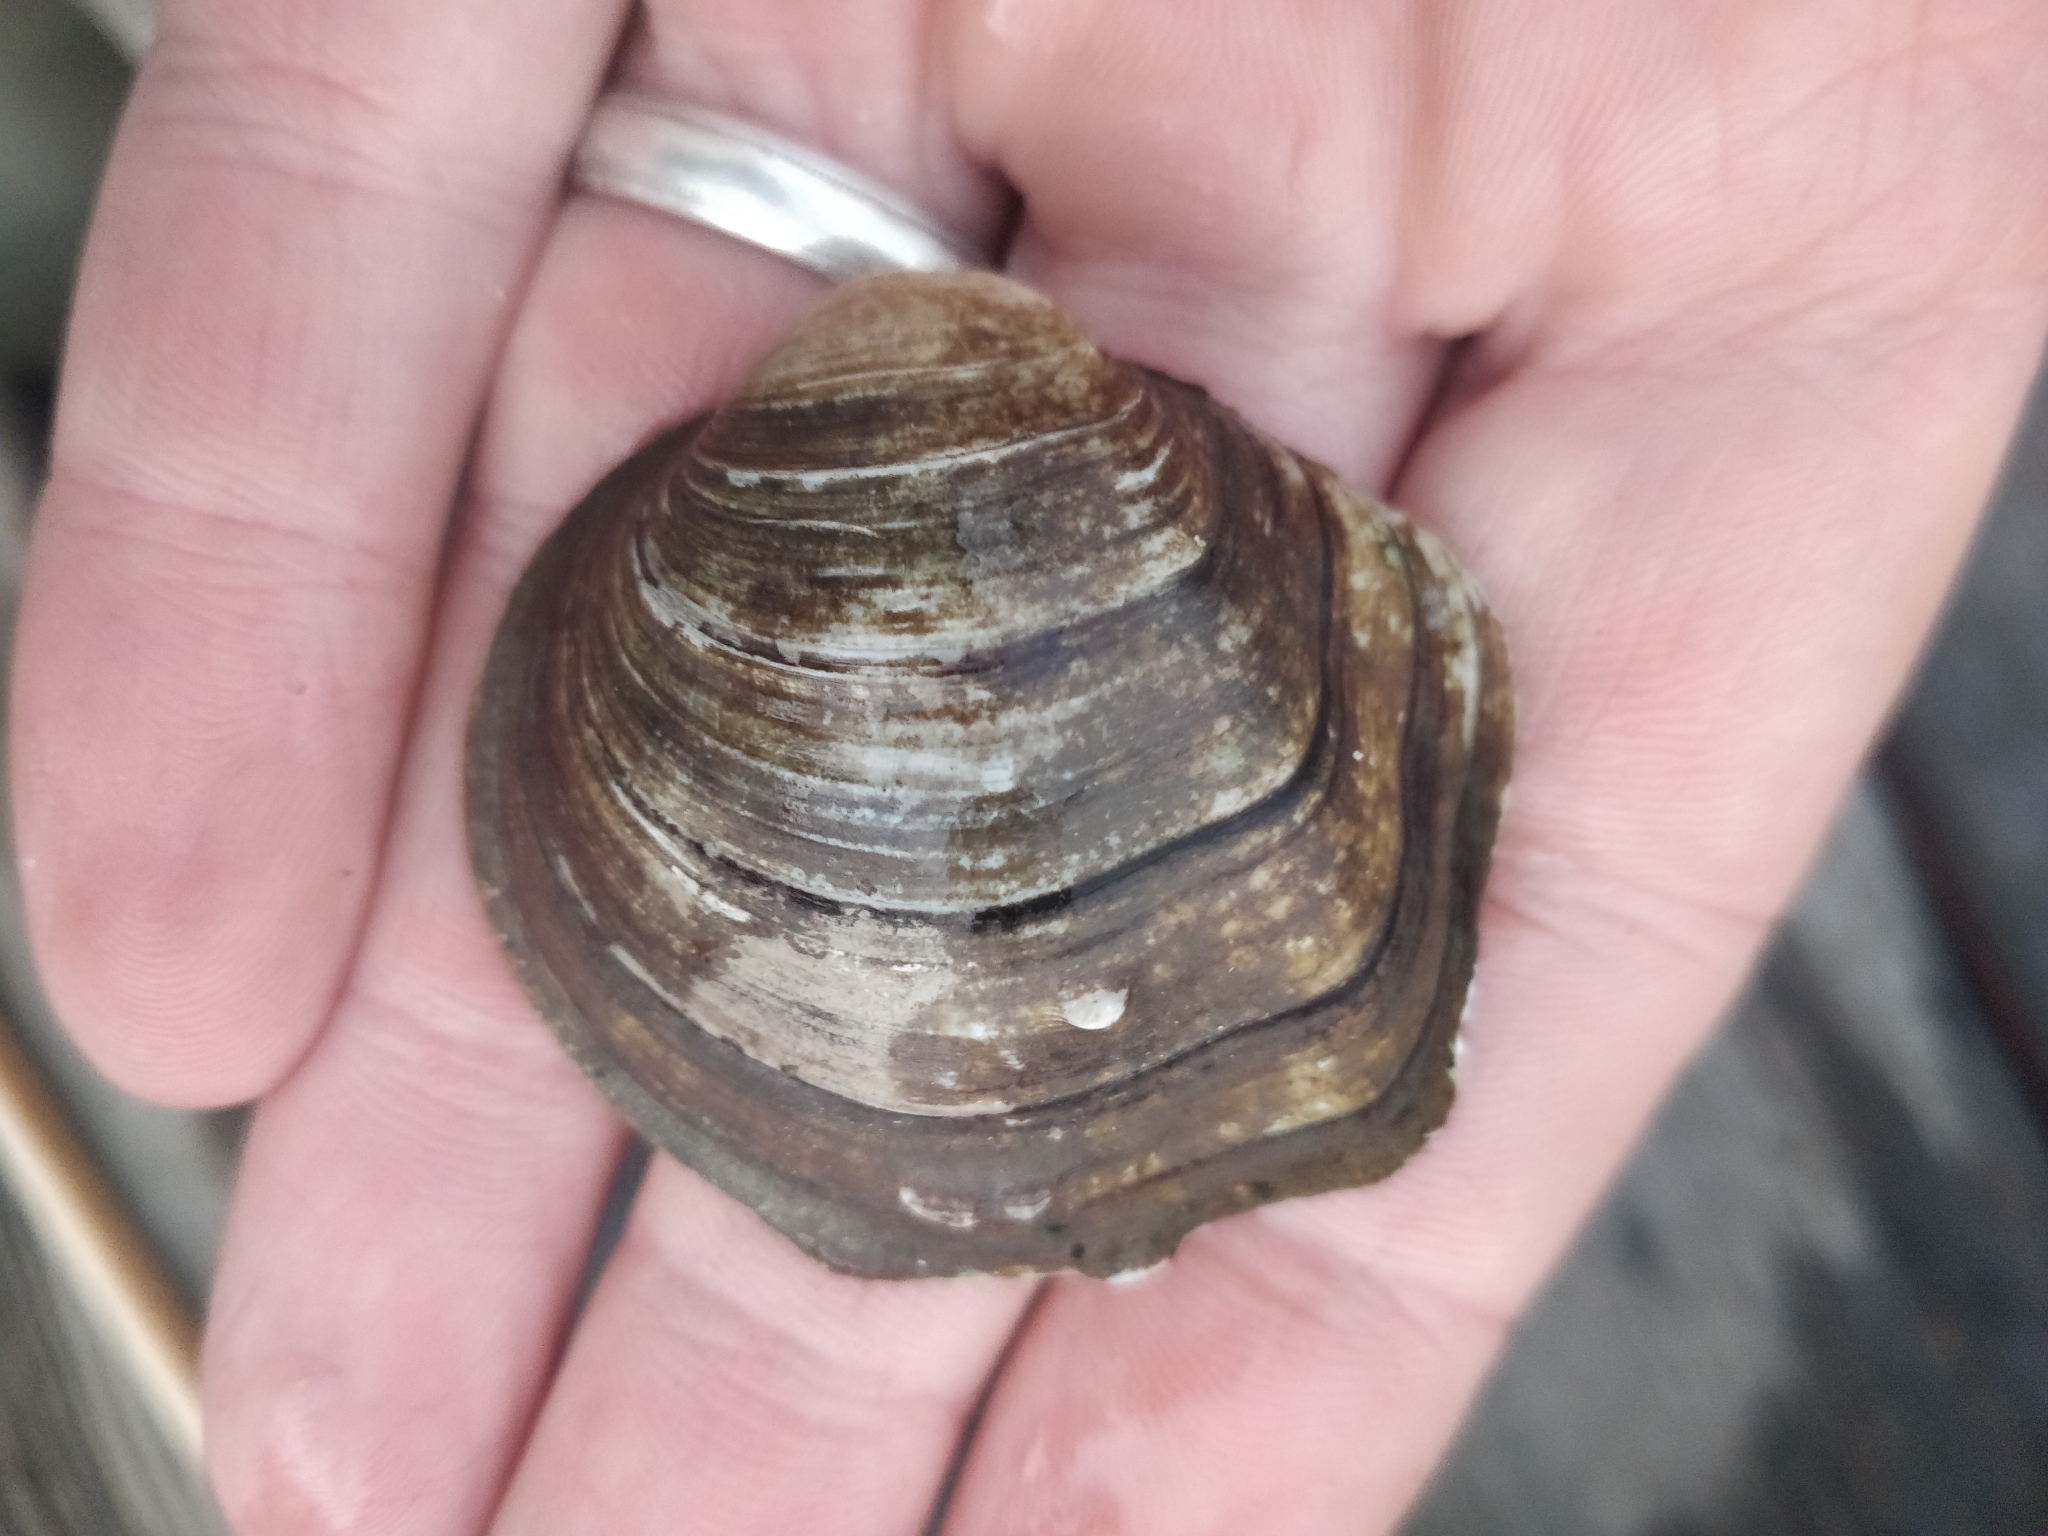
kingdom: Animalia
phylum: Mollusca
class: Bivalvia
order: Unionida
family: Unionidae
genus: Cyclonaias
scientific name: Cyclonaias nodulata
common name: Wartyback
